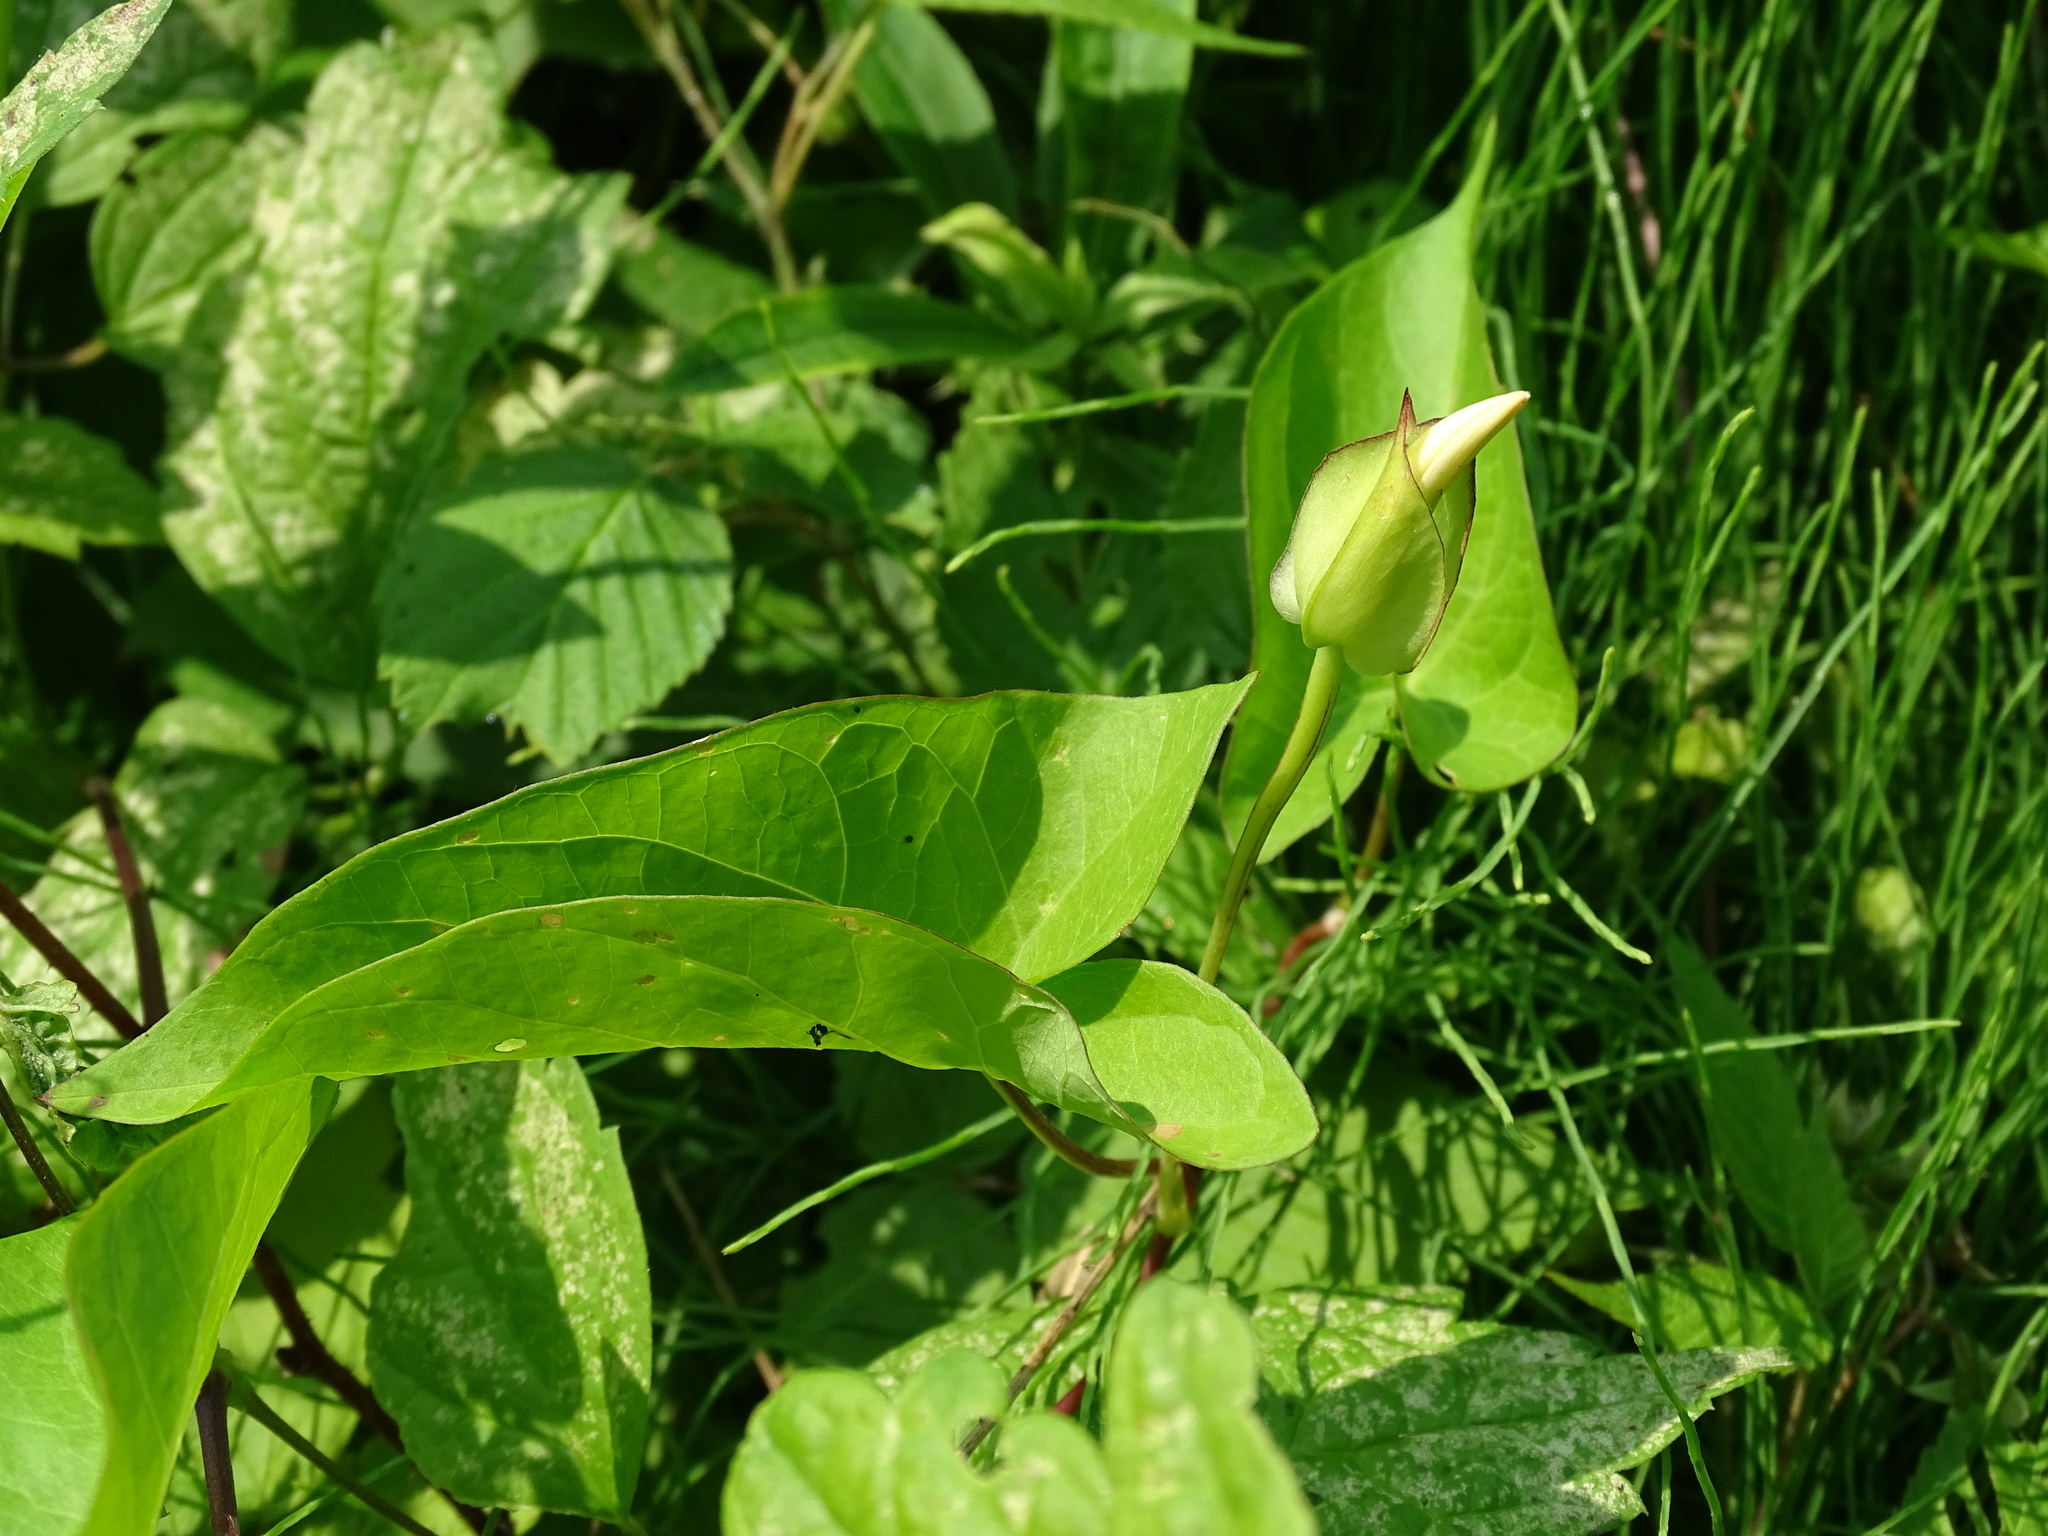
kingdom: Plantae
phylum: Tracheophyta
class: Magnoliopsida
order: Solanales
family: Convolvulaceae
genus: Calystegia
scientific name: Calystegia sepium
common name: Hedge bindweed
